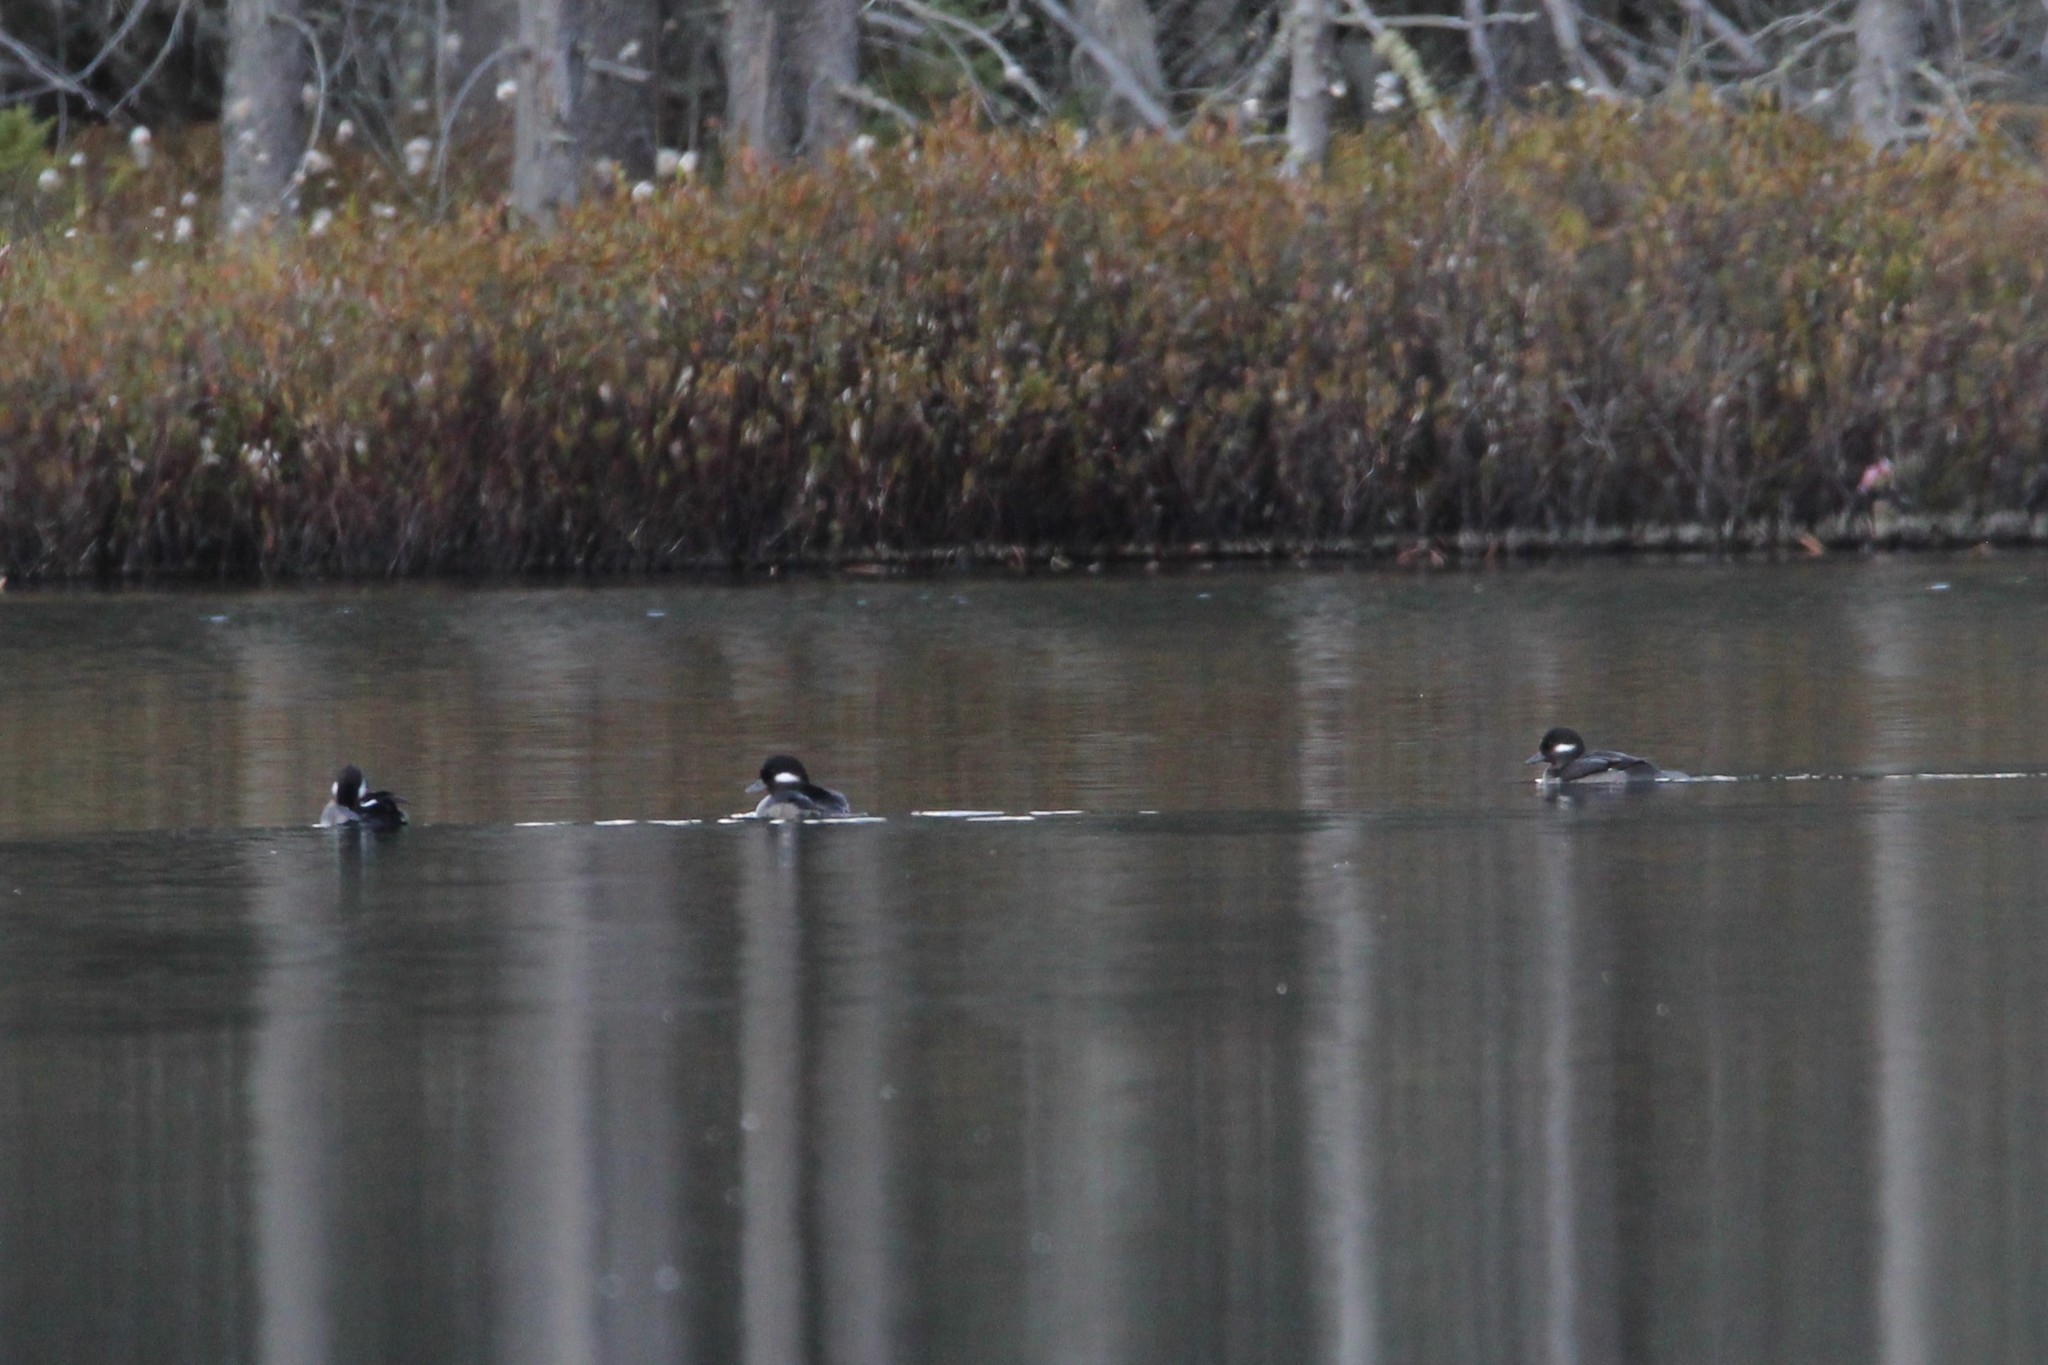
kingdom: Animalia
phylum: Chordata
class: Aves
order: Anseriformes
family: Anatidae
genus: Bucephala
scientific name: Bucephala albeola
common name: Bufflehead
